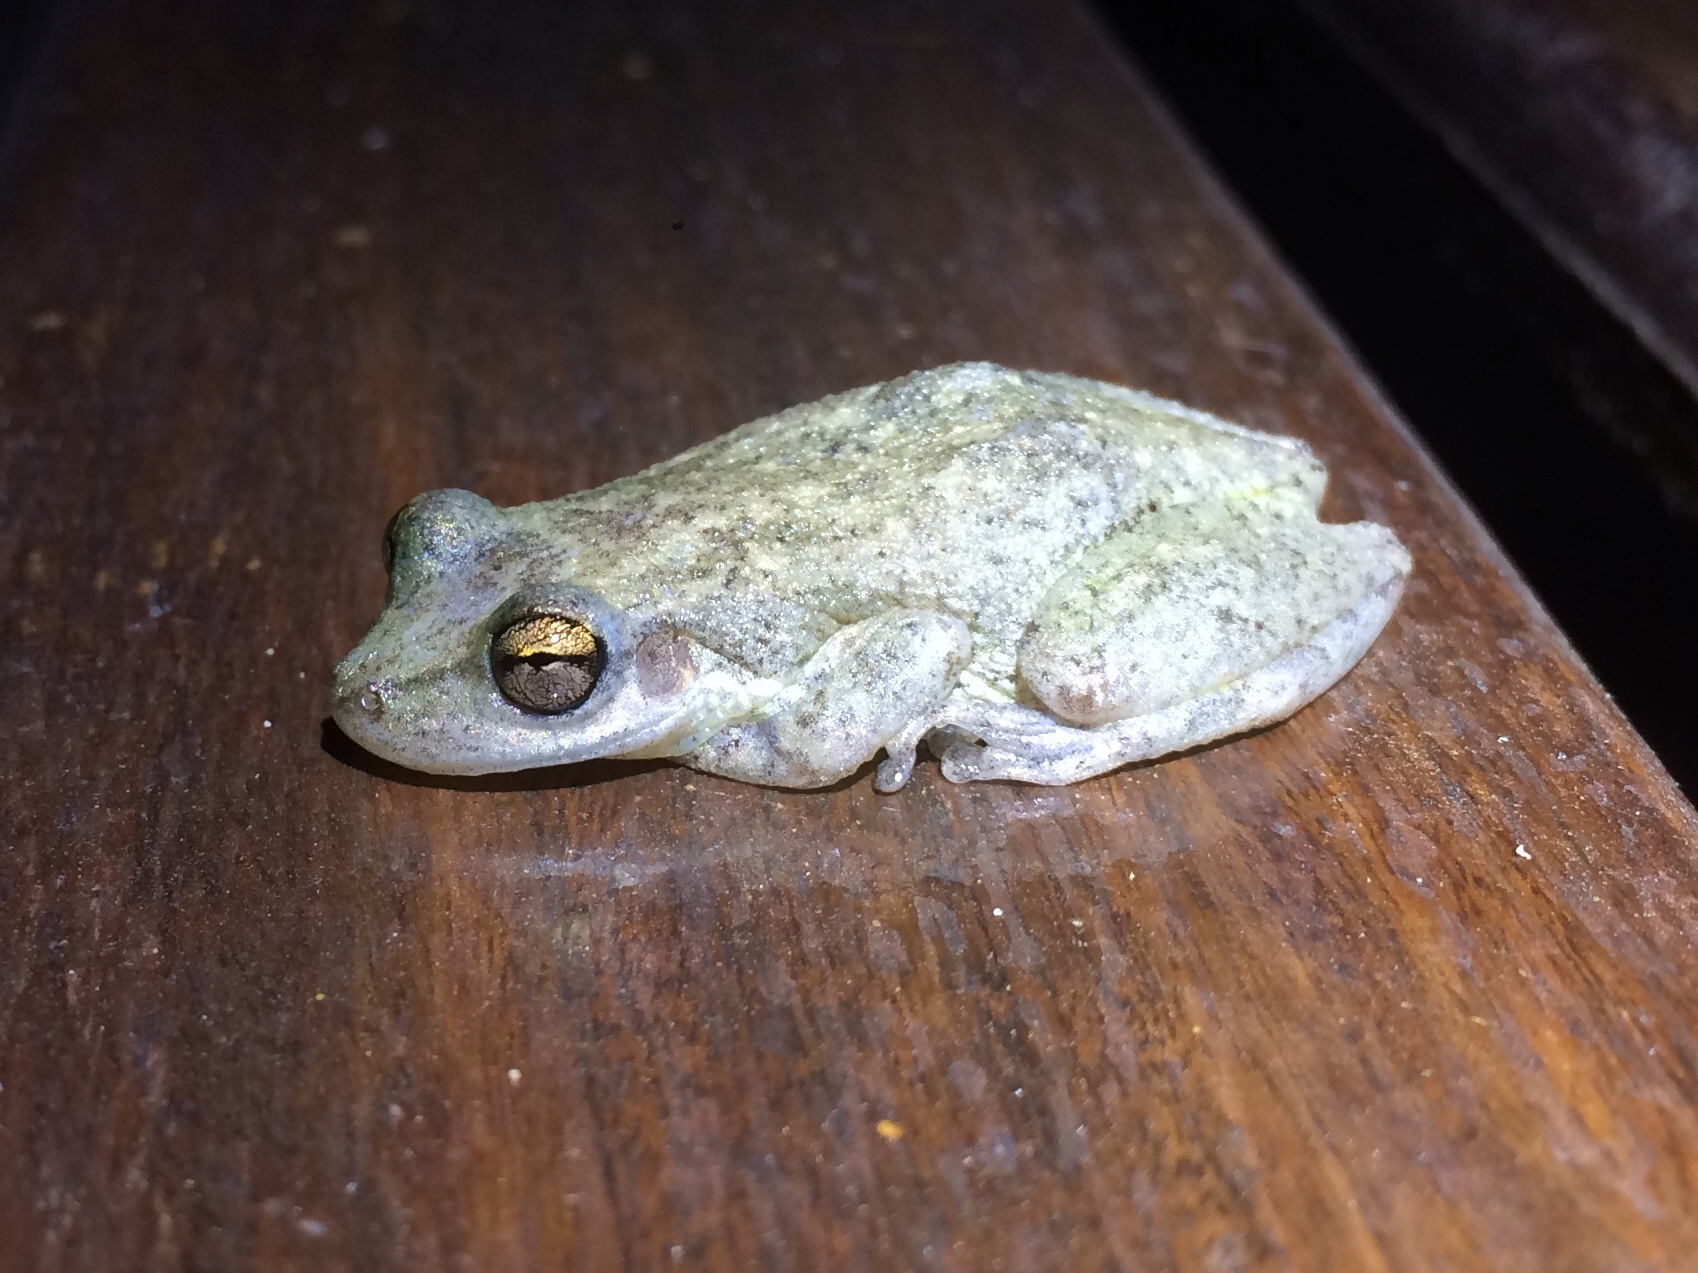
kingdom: Animalia
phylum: Chordata
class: Amphibia
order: Anura
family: Hylidae
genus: Scinax
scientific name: Scinax nasicus
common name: Lesser snouted treefrog
